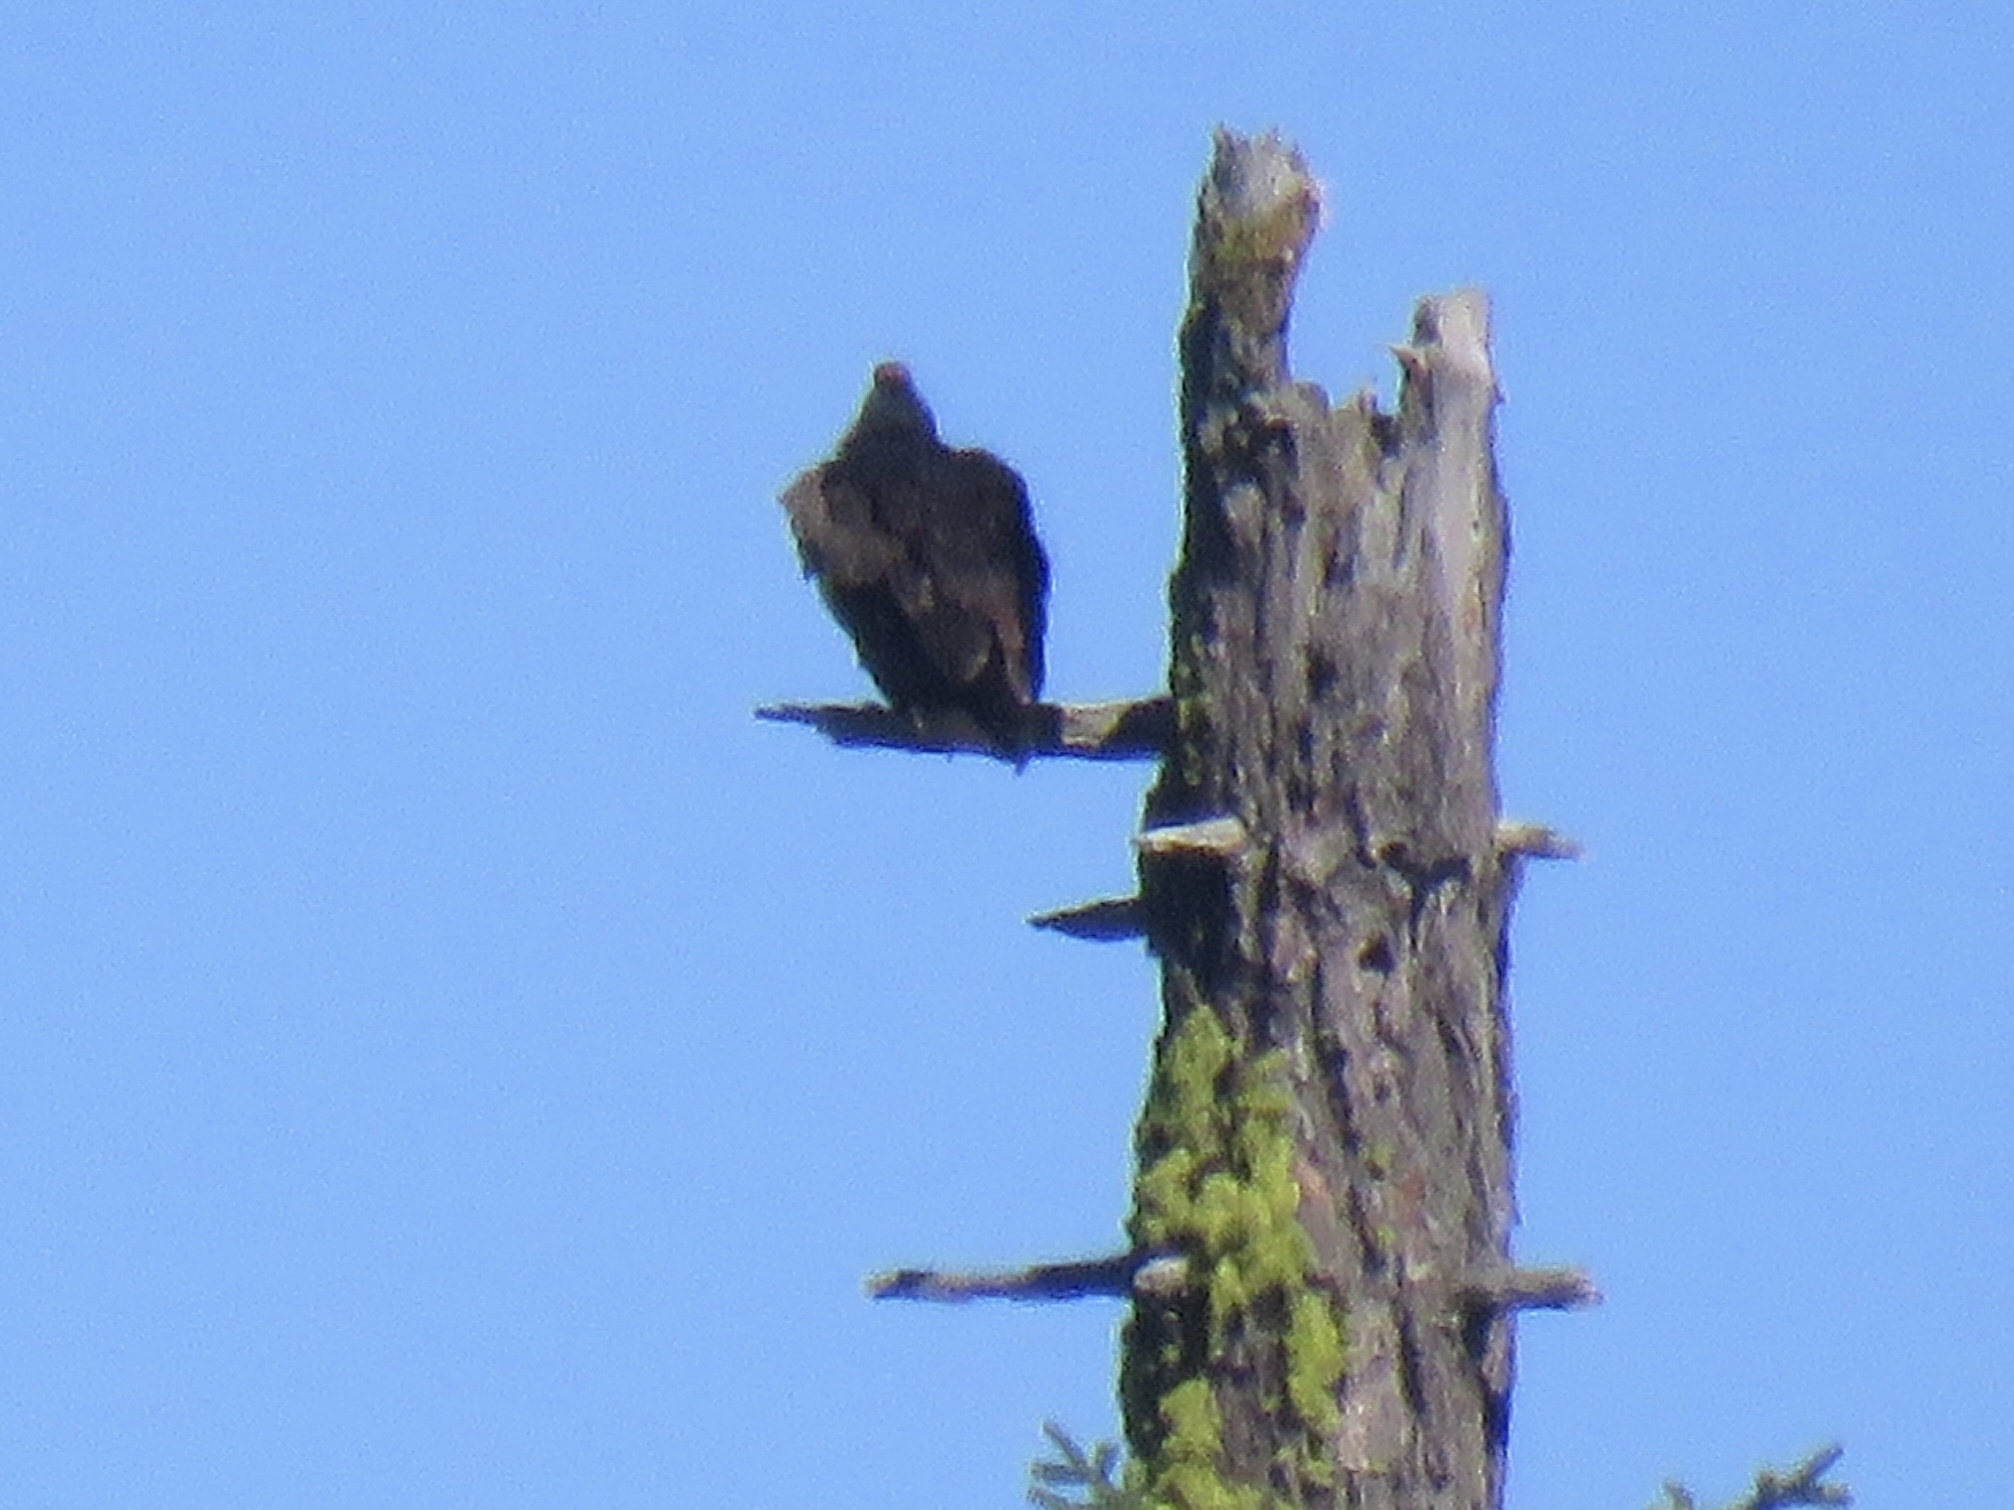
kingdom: Animalia
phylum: Chordata
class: Aves
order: Accipitriformes
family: Cathartidae
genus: Cathartes
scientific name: Cathartes aura
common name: Turkey vulture
